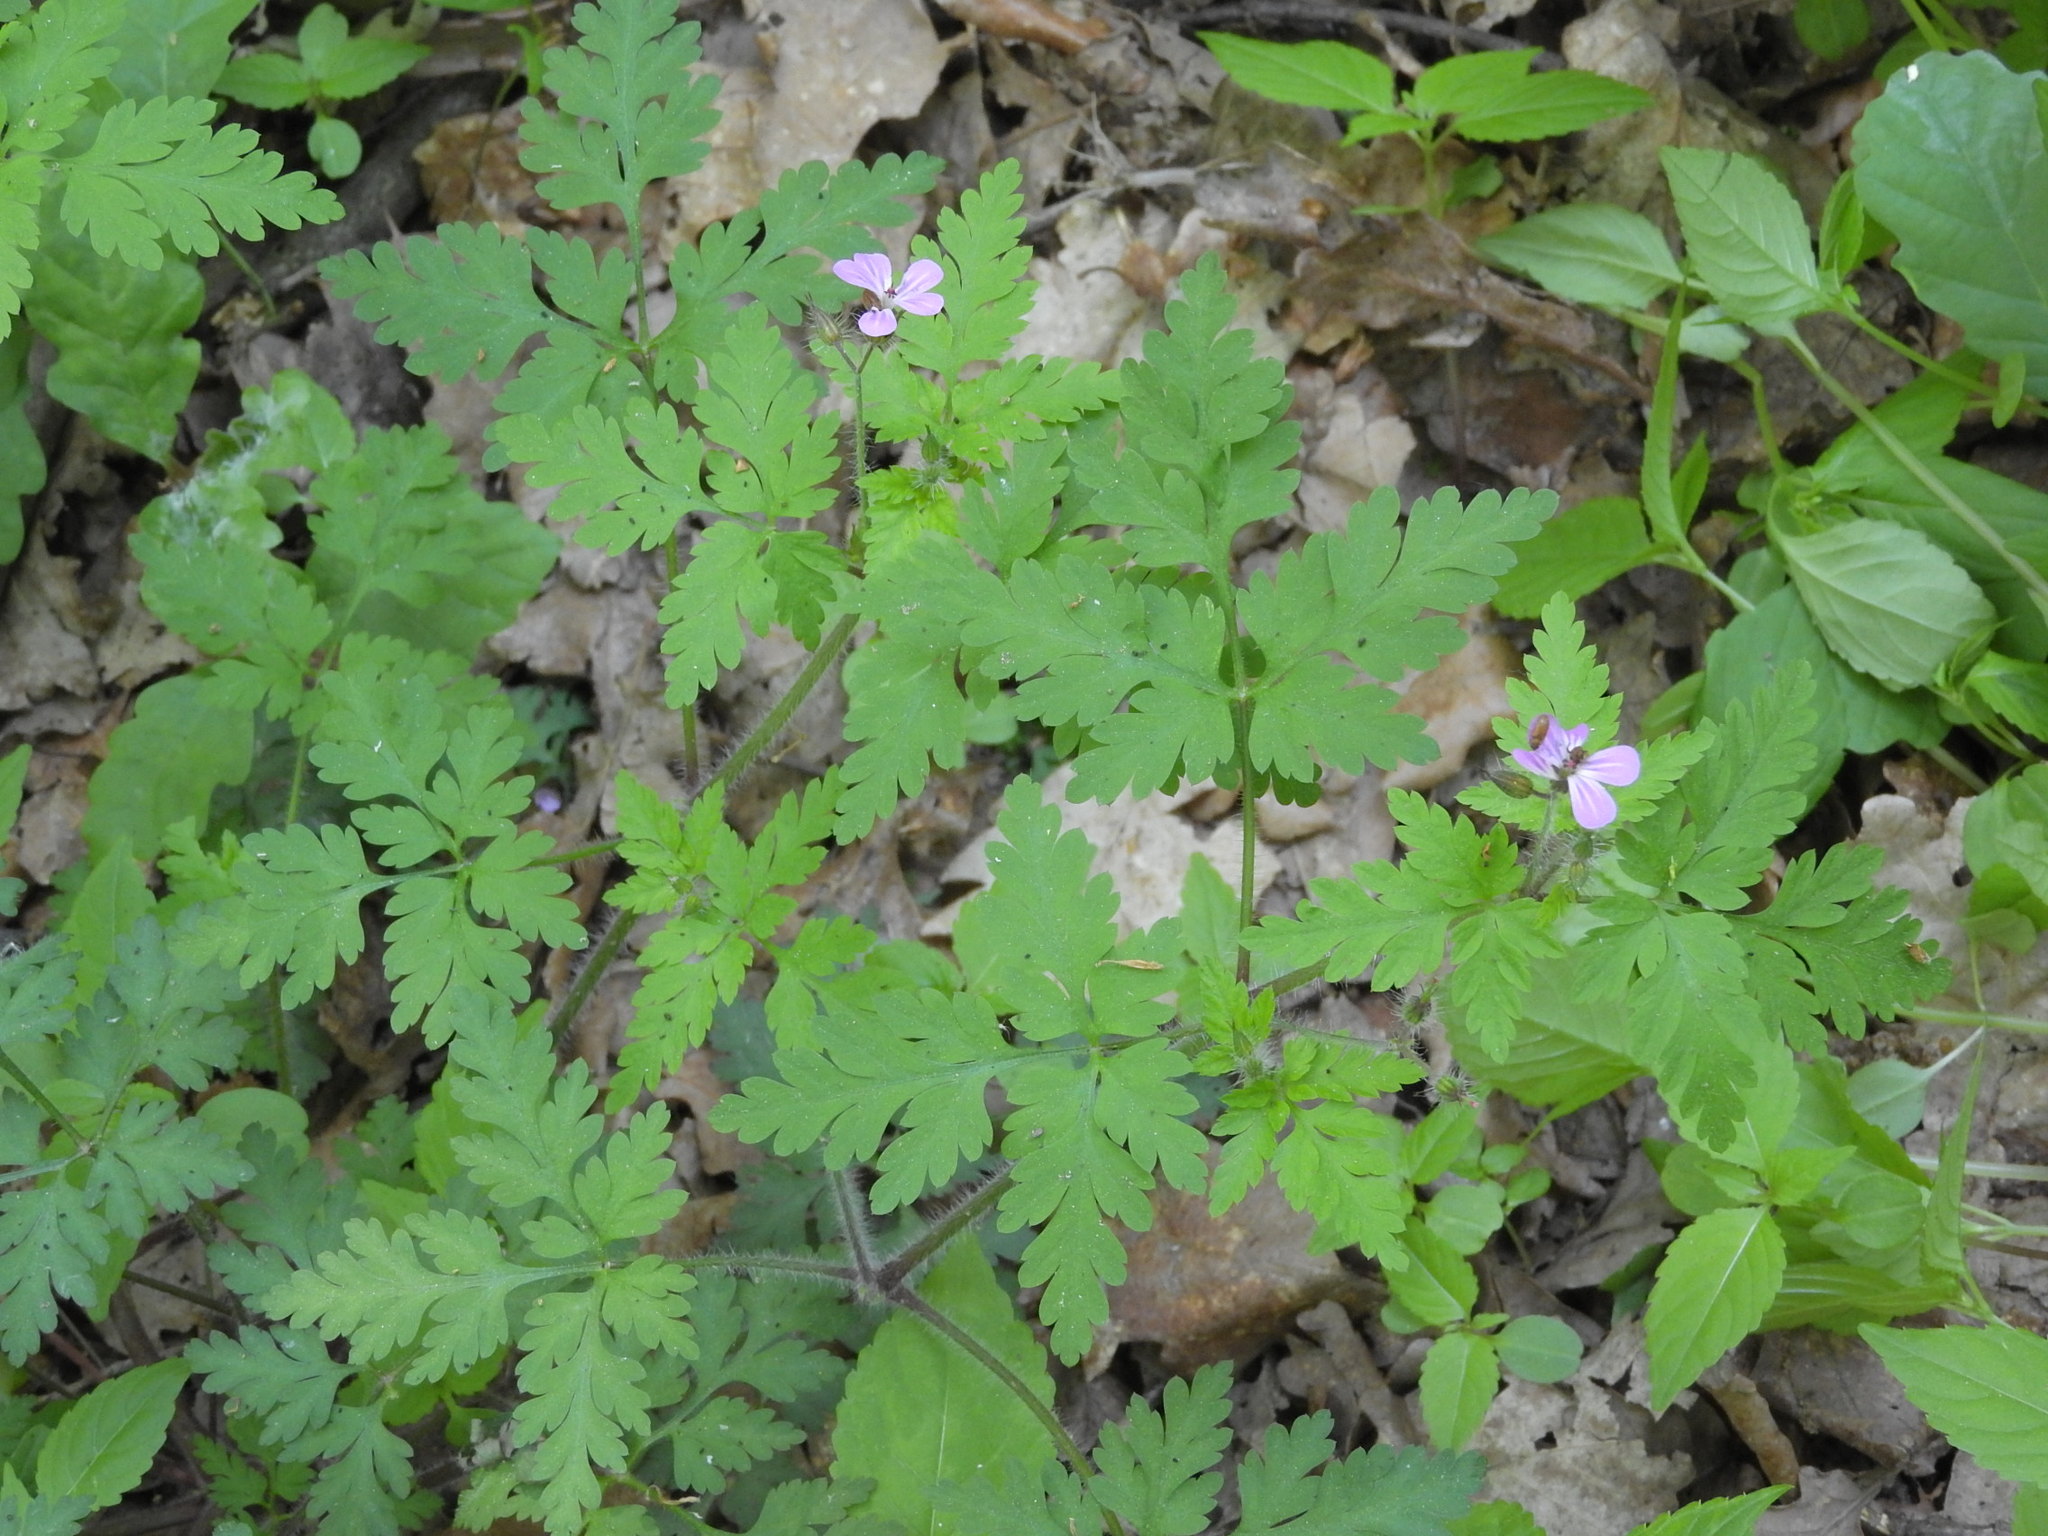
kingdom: Plantae
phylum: Tracheophyta
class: Magnoliopsida
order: Geraniales
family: Geraniaceae
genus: Geranium
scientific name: Geranium robertianum
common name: Herb-robert
